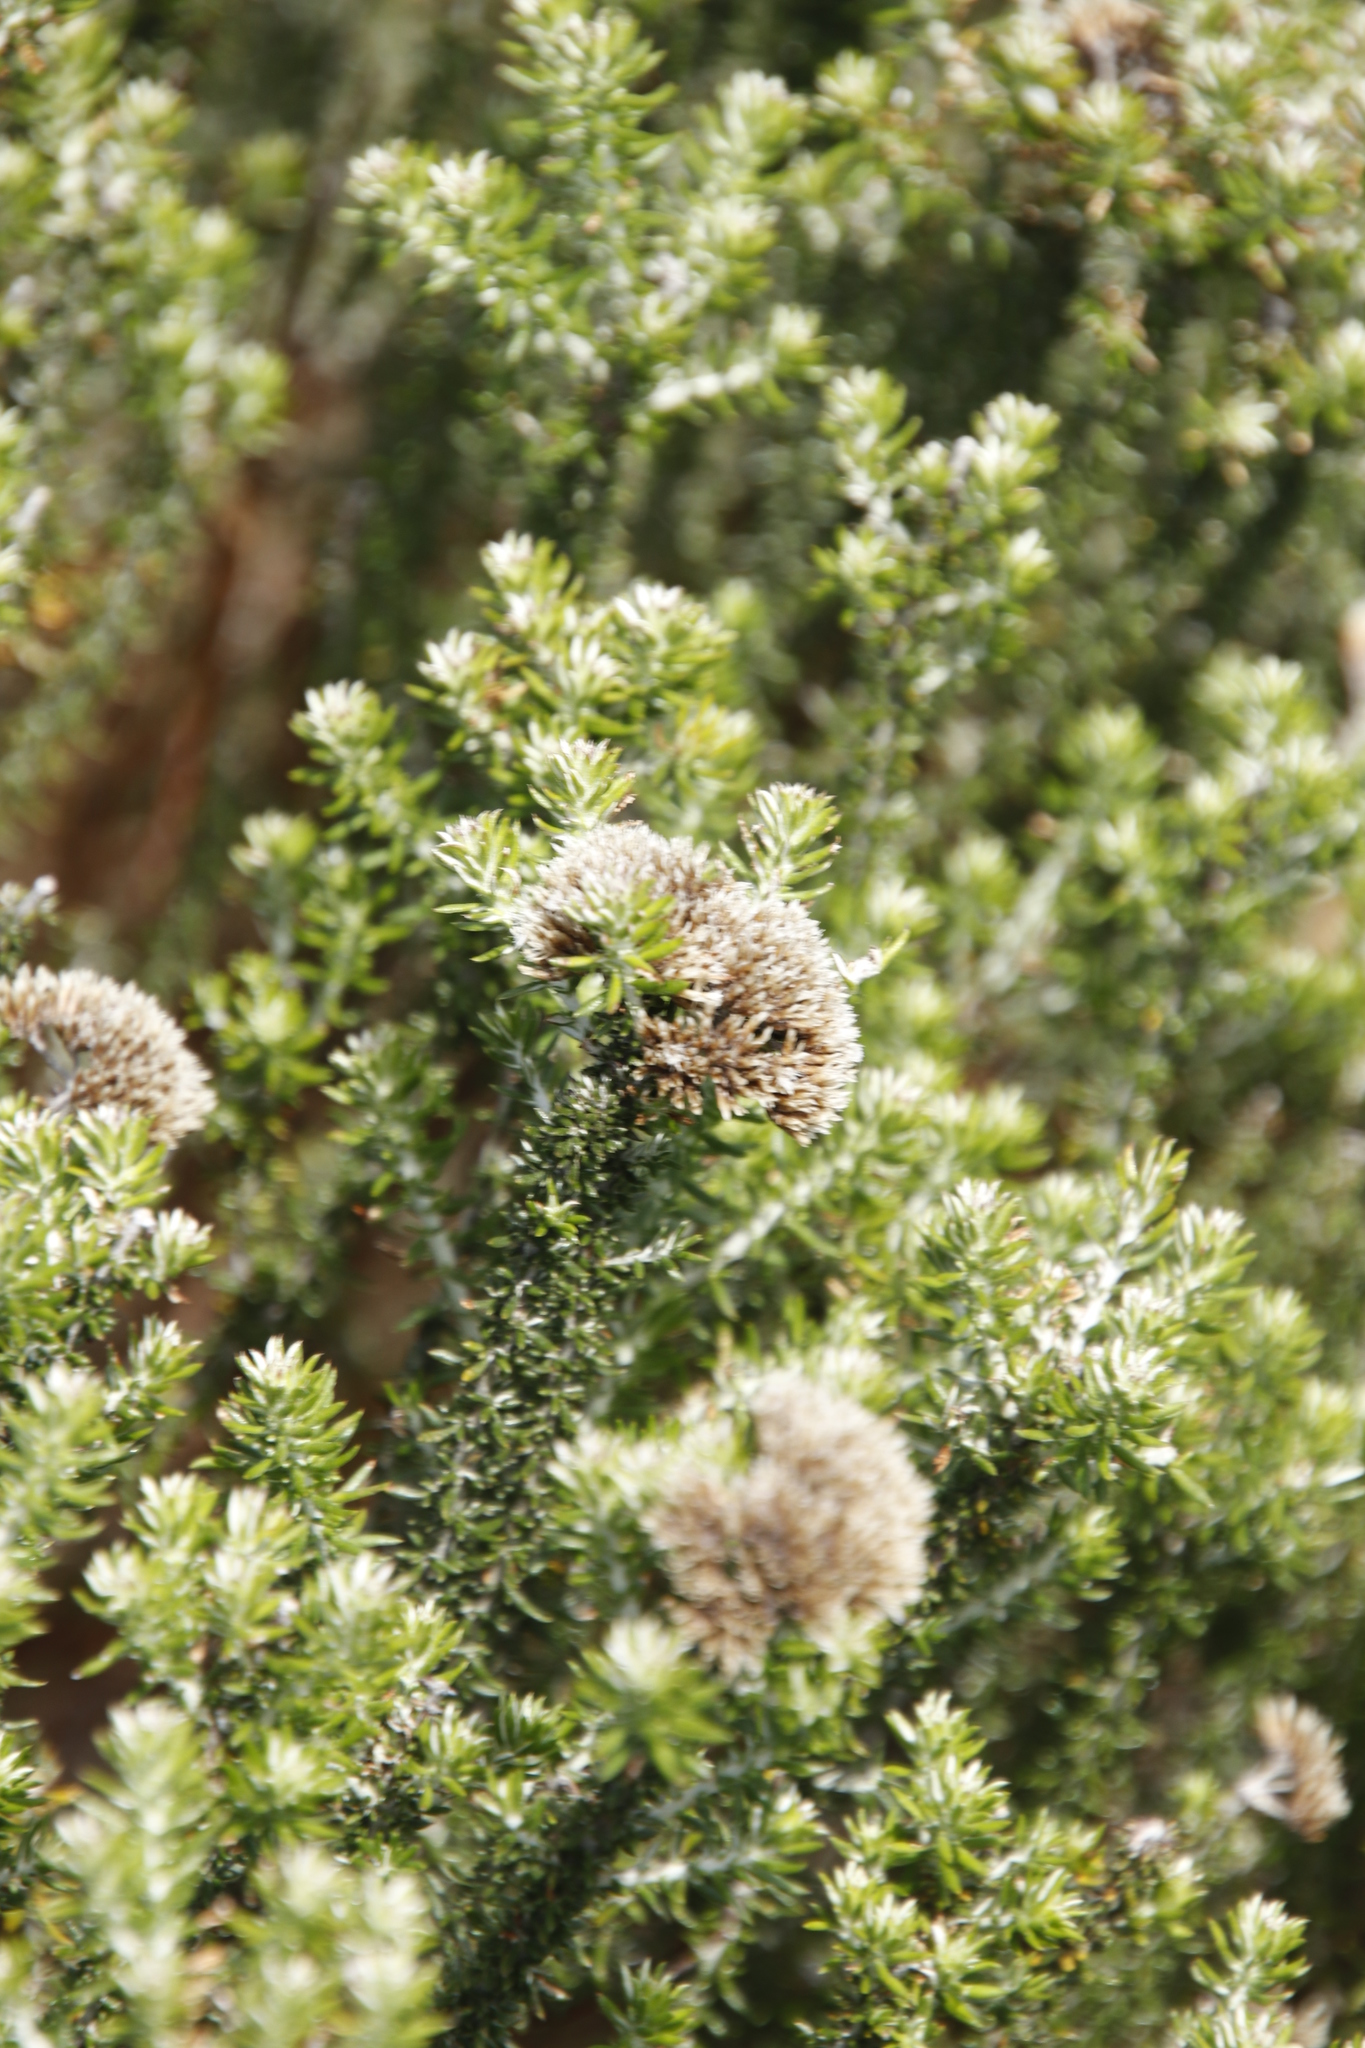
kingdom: Plantae
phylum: Tracheophyta
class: Magnoliopsida
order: Asterales
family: Asteraceae
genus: Metalasia
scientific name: Metalasia densa
